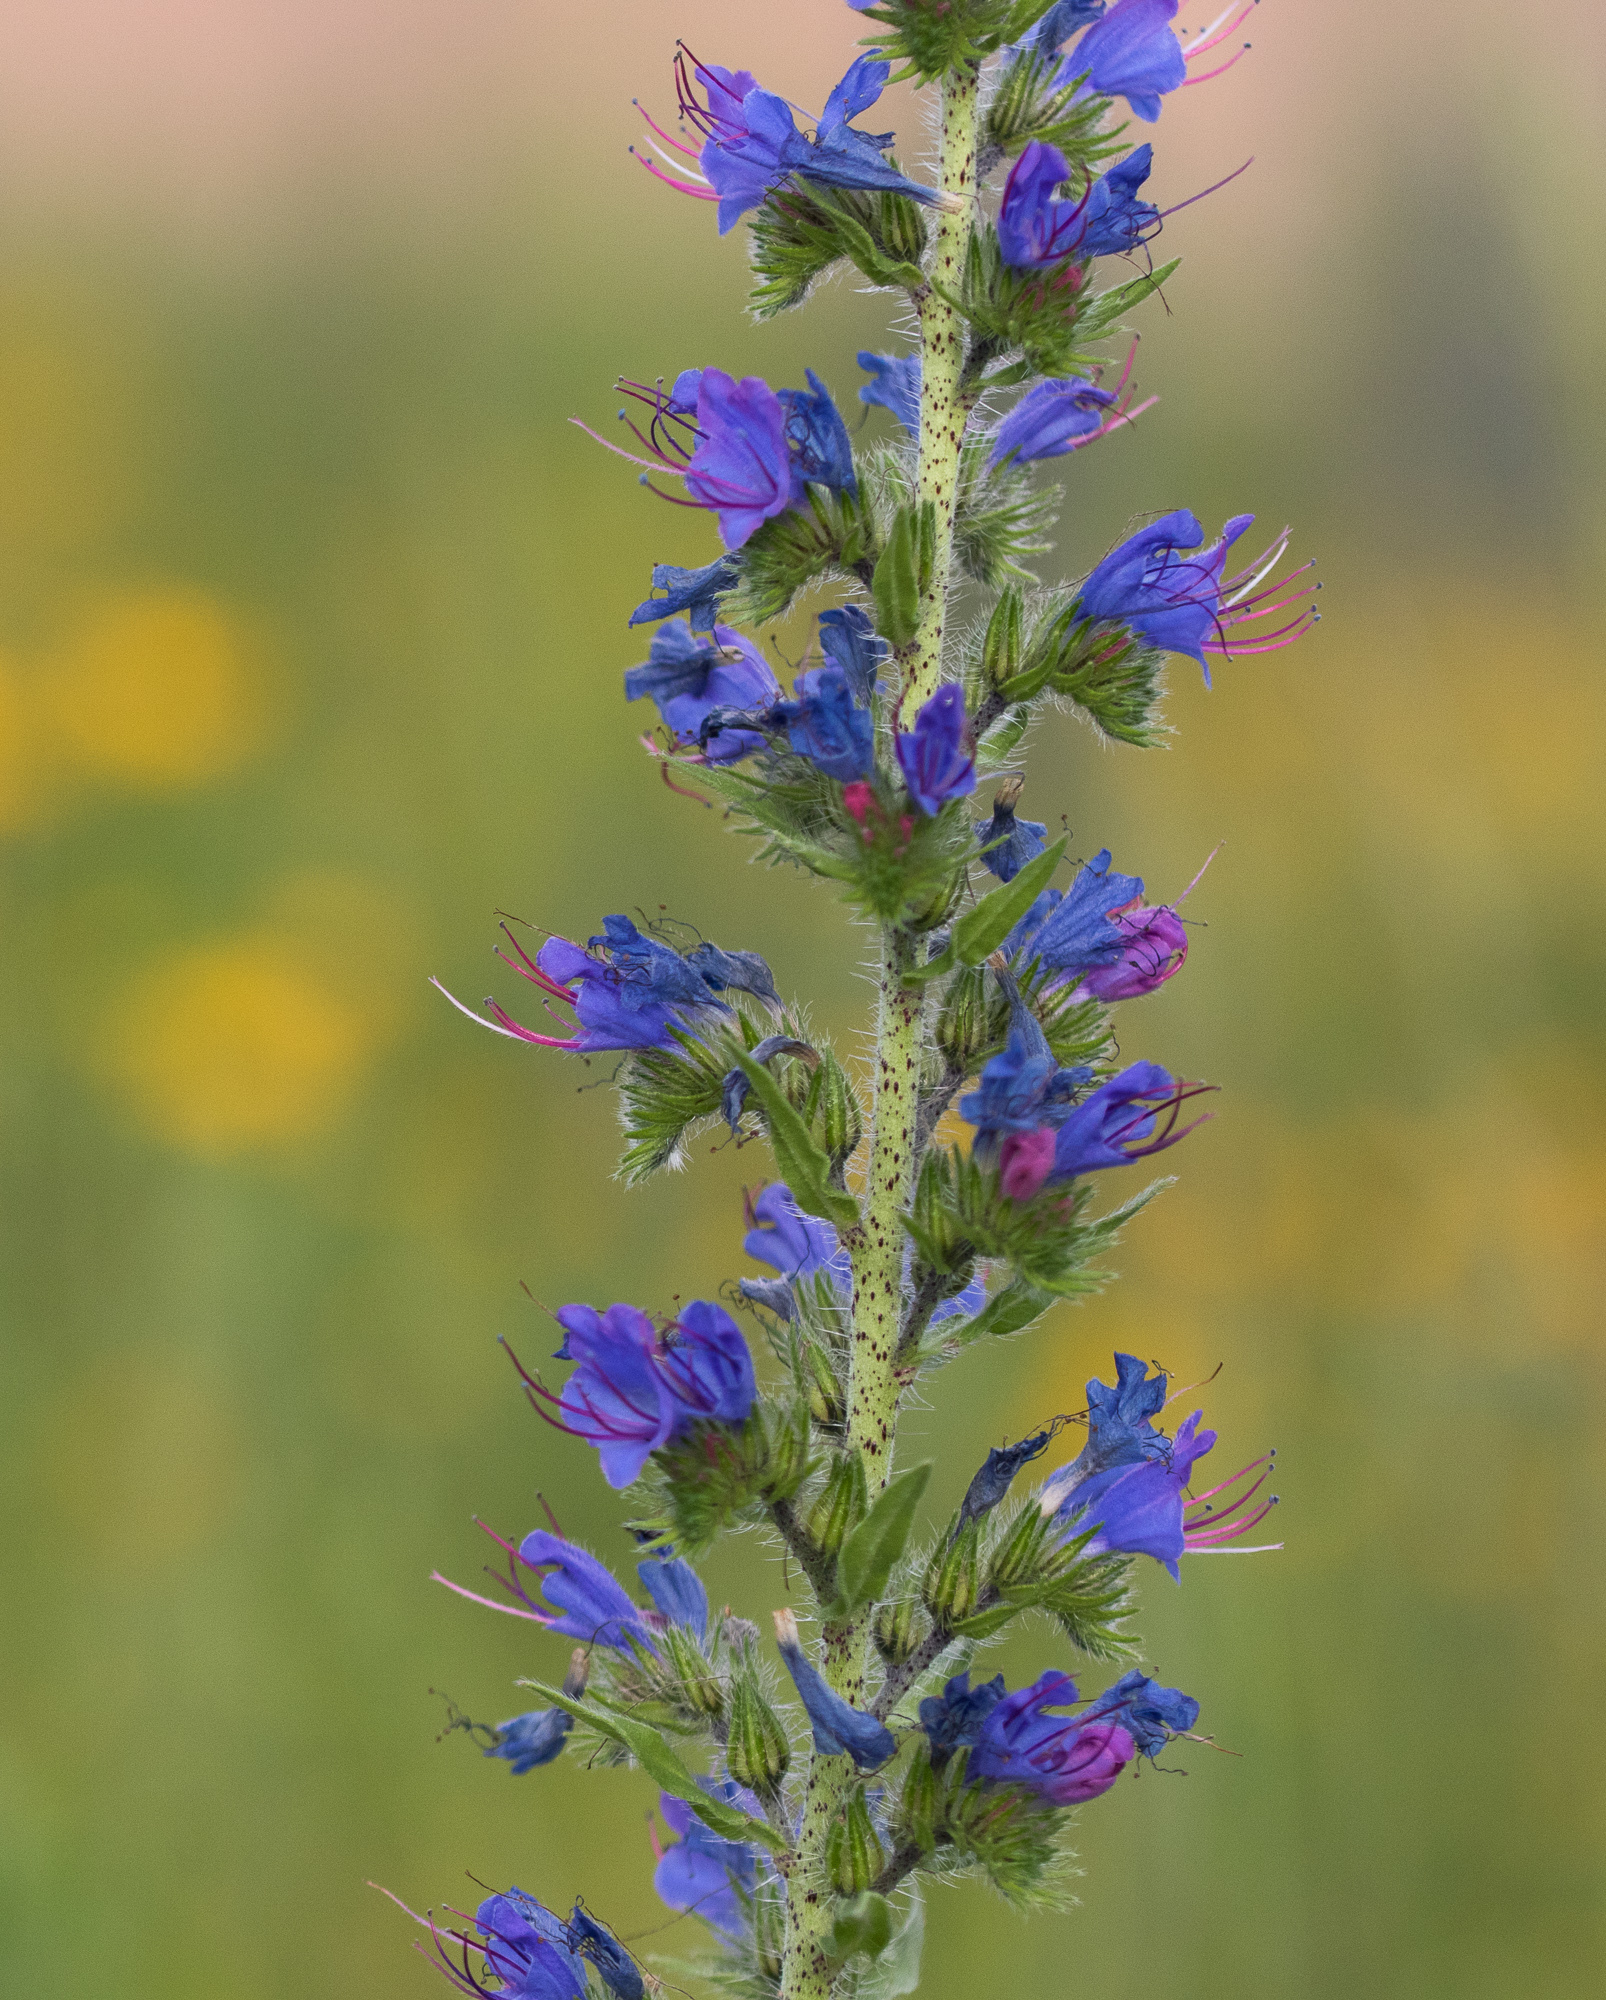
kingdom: Plantae
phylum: Tracheophyta
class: Magnoliopsida
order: Boraginales
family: Boraginaceae
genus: Echium
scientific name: Echium vulgare
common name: Common viper's bugloss
